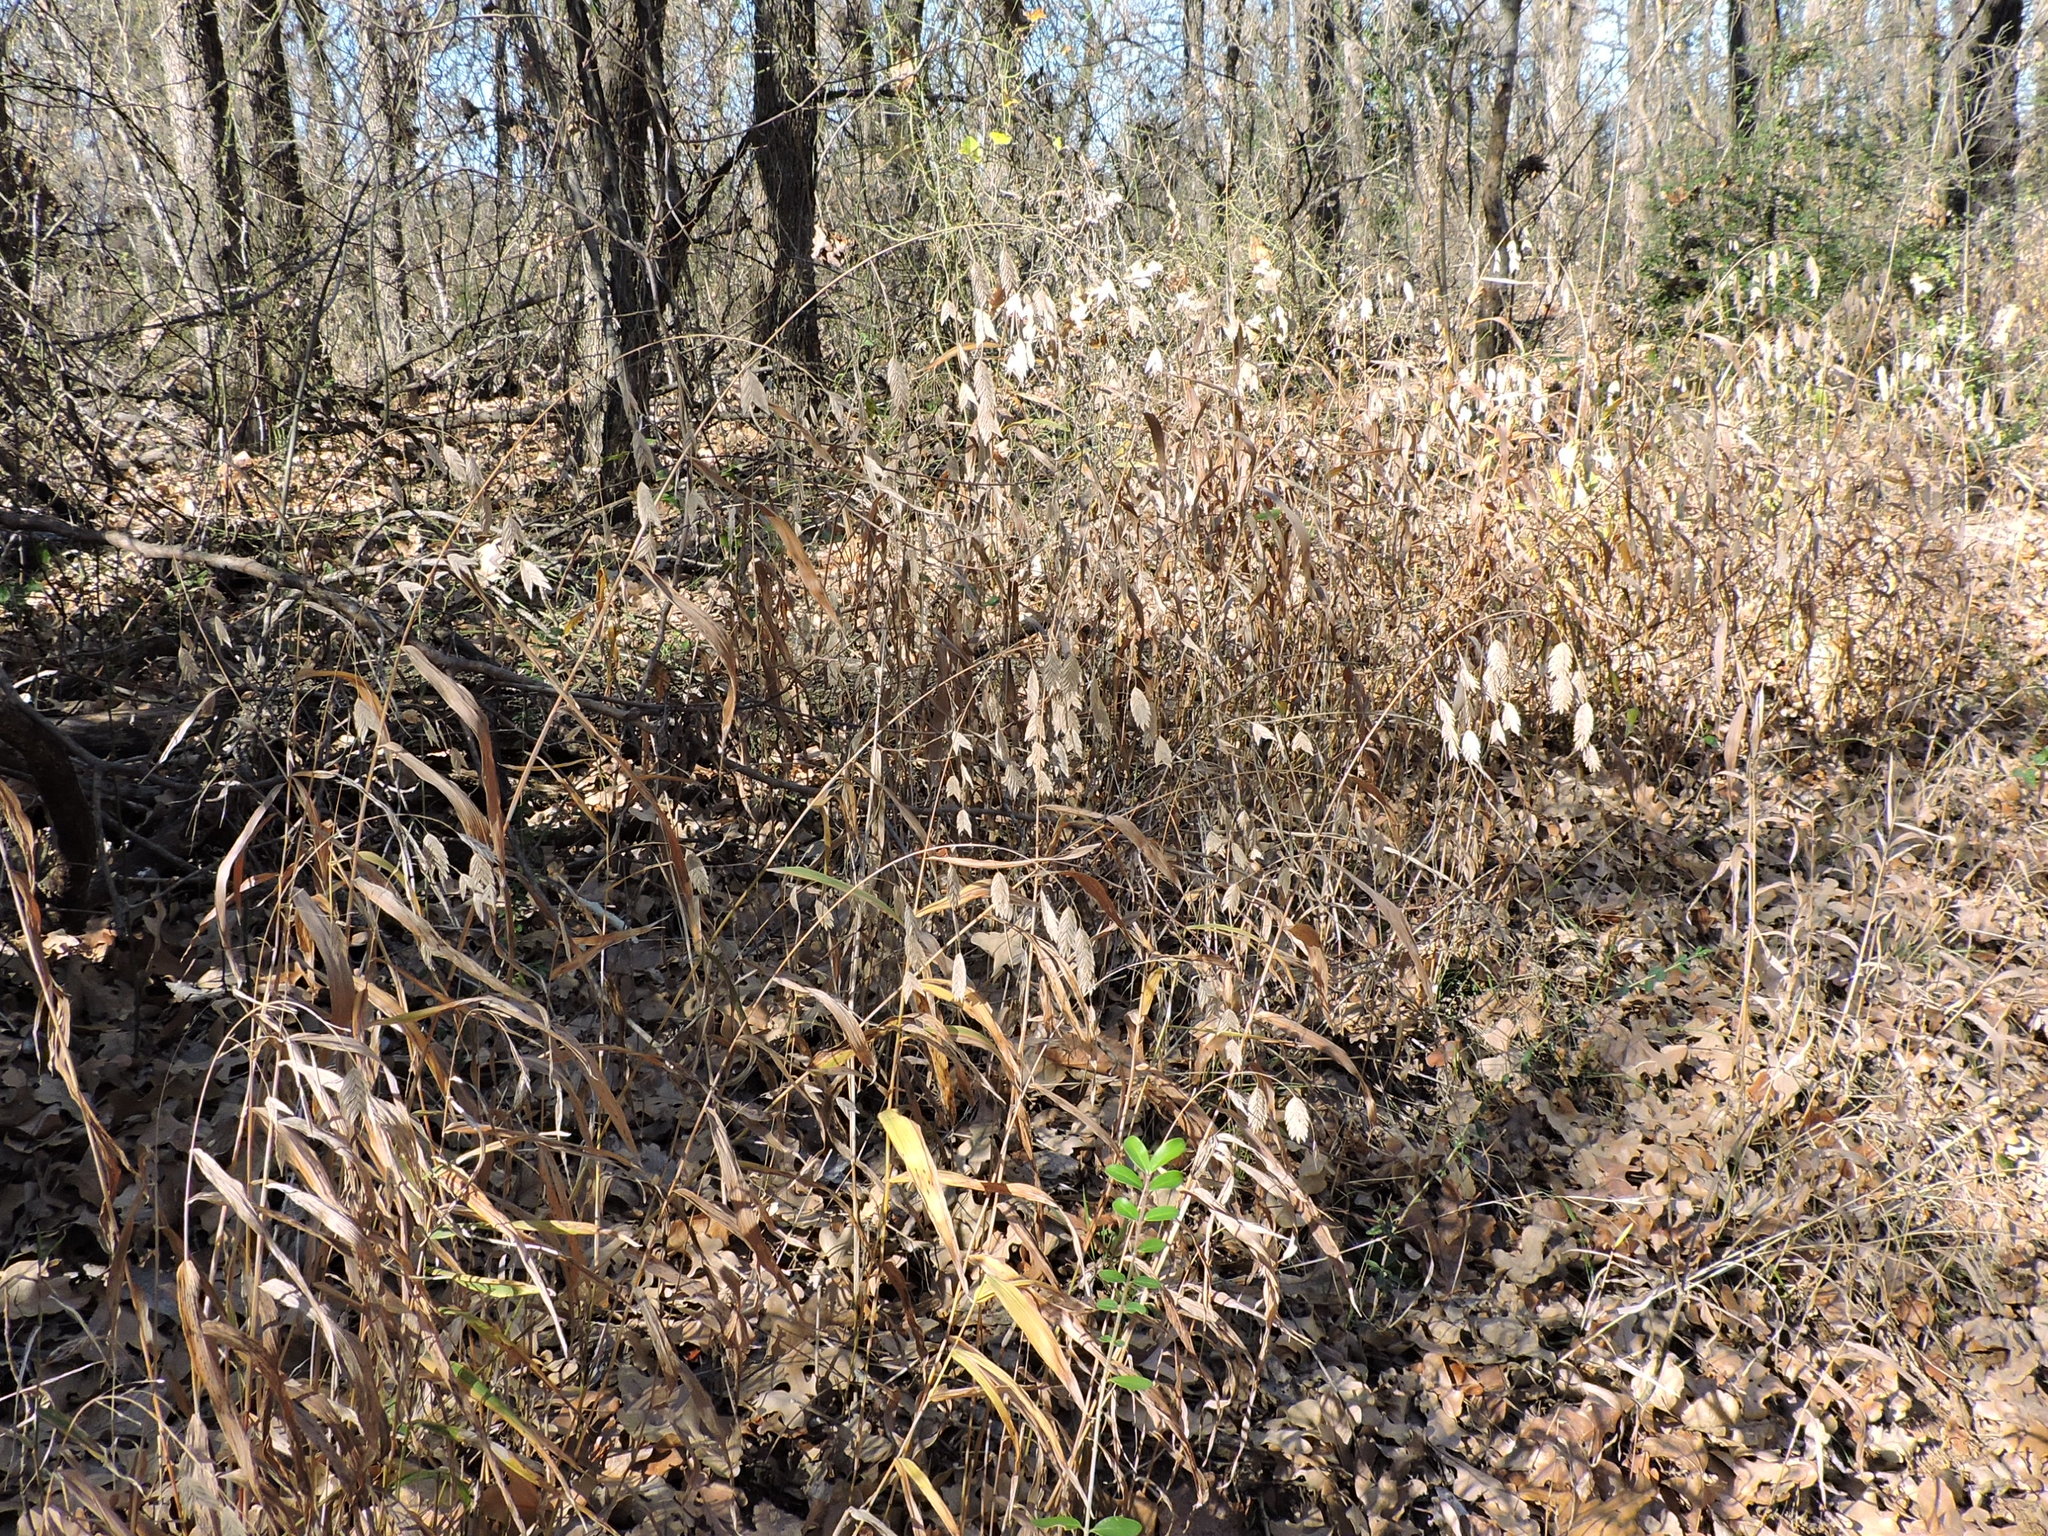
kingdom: Plantae
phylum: Tracheophyta
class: Liliopsida
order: Poales
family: Poaceae
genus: Chasmanthium
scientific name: Chasmanthium latifolium
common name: Broad-leaved chasmanthium
